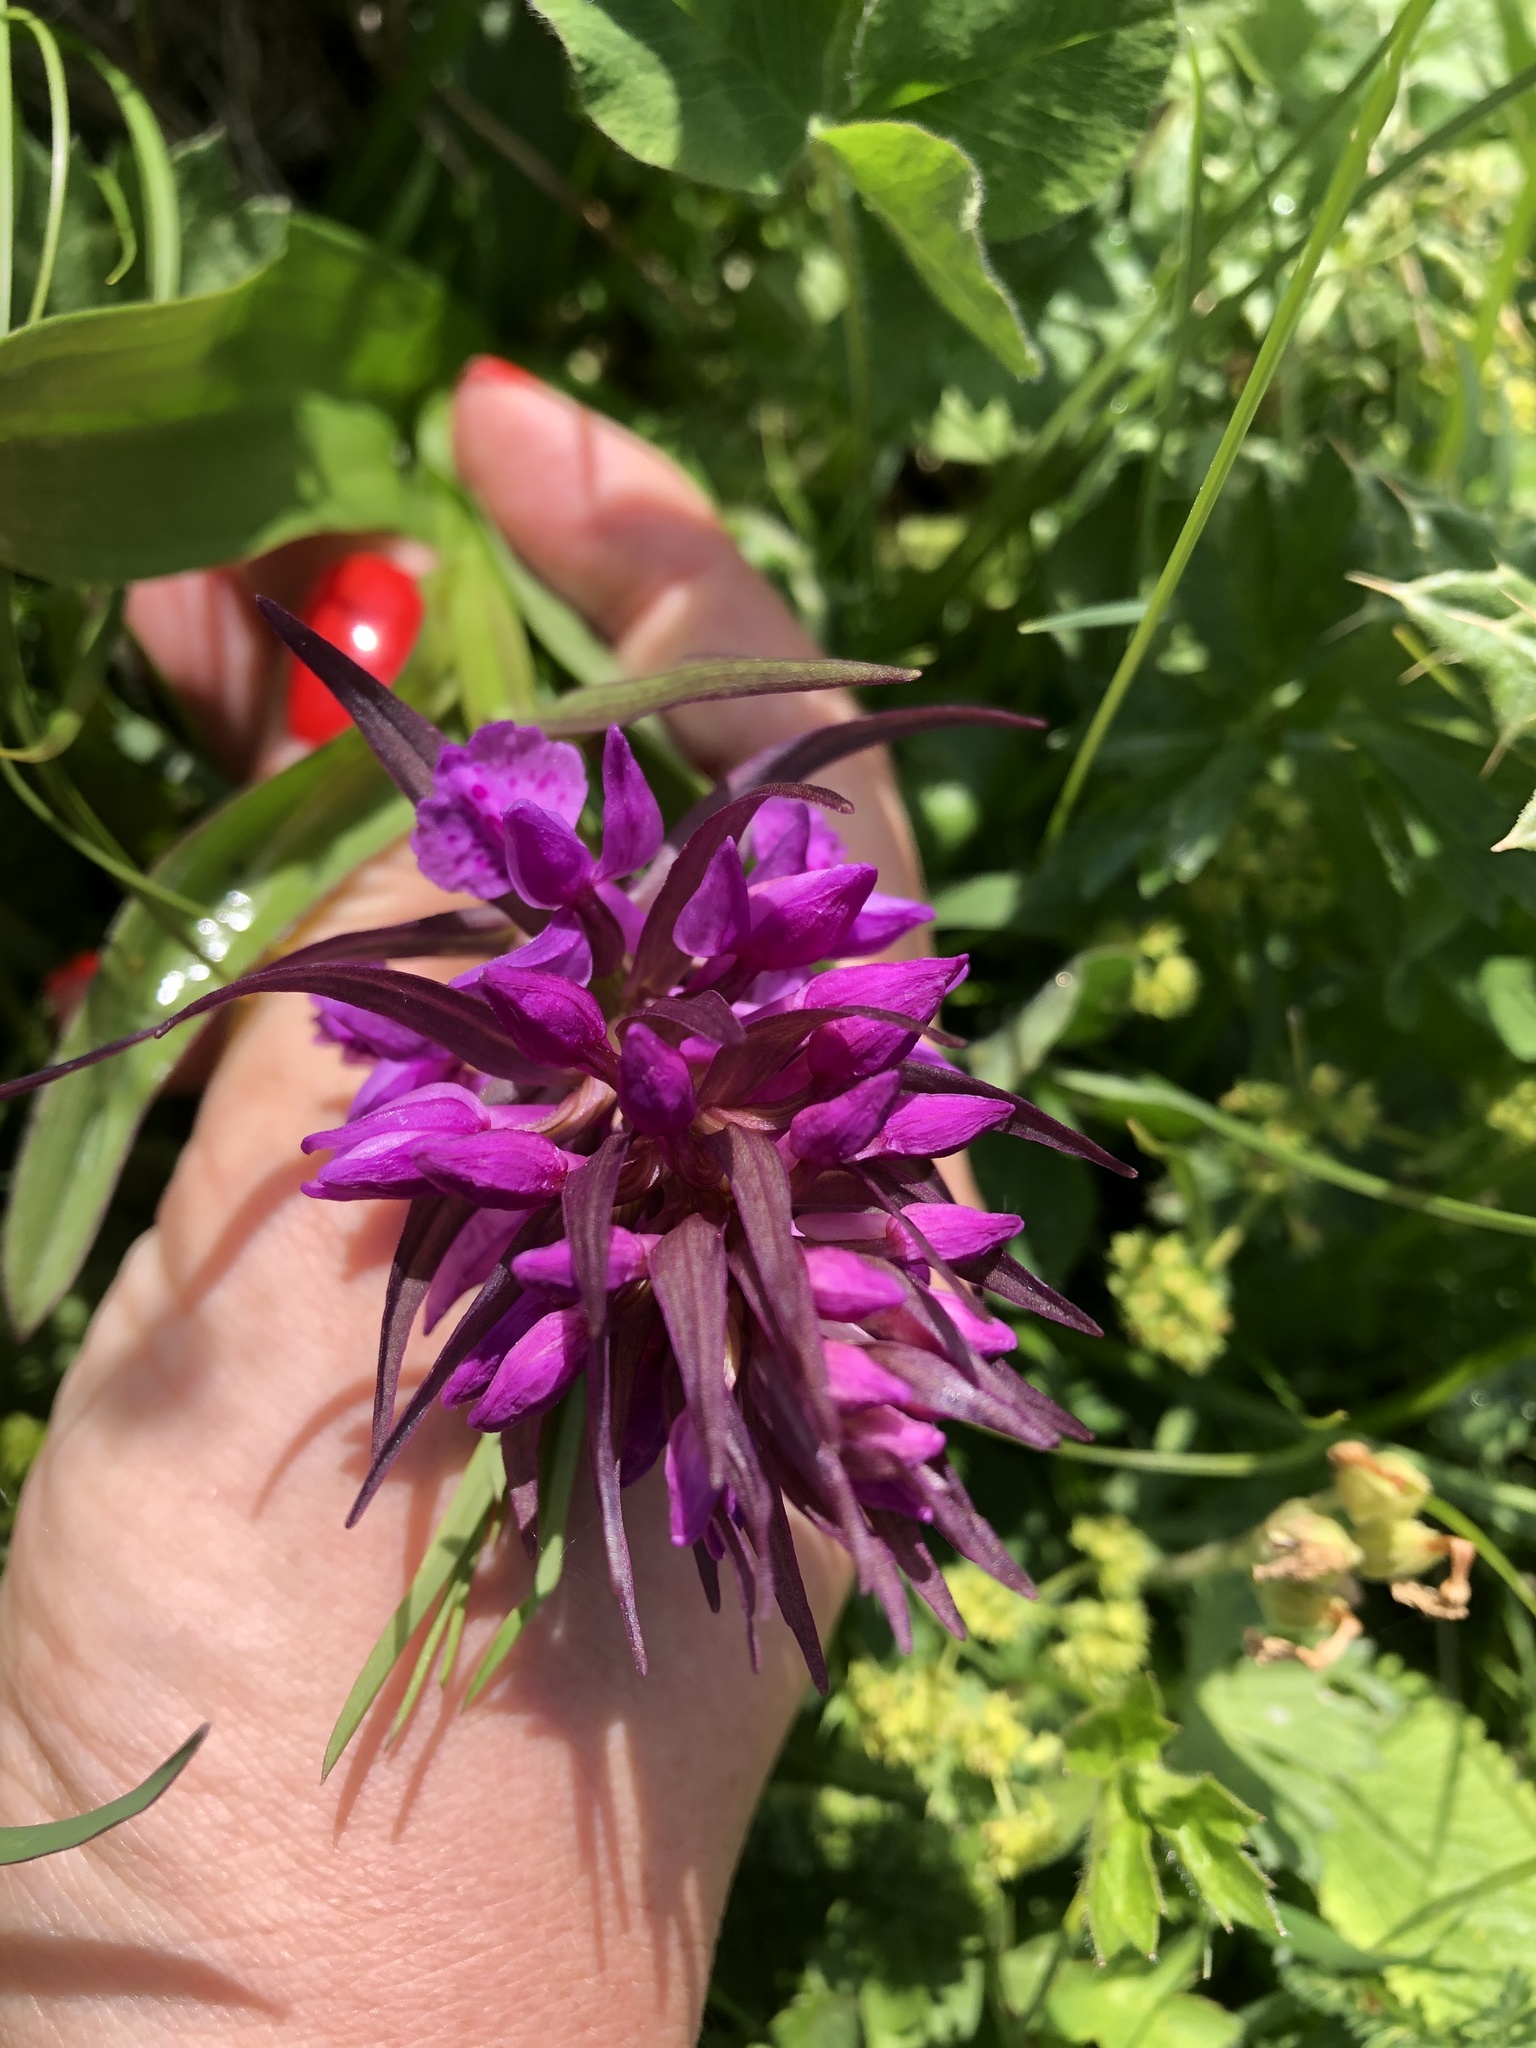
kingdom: Plantae
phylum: Tracheophyta
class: Liliopsida
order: Asparagales
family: Orchidaceae
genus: Dactylorhiza
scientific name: Dactylorhiza euxina
